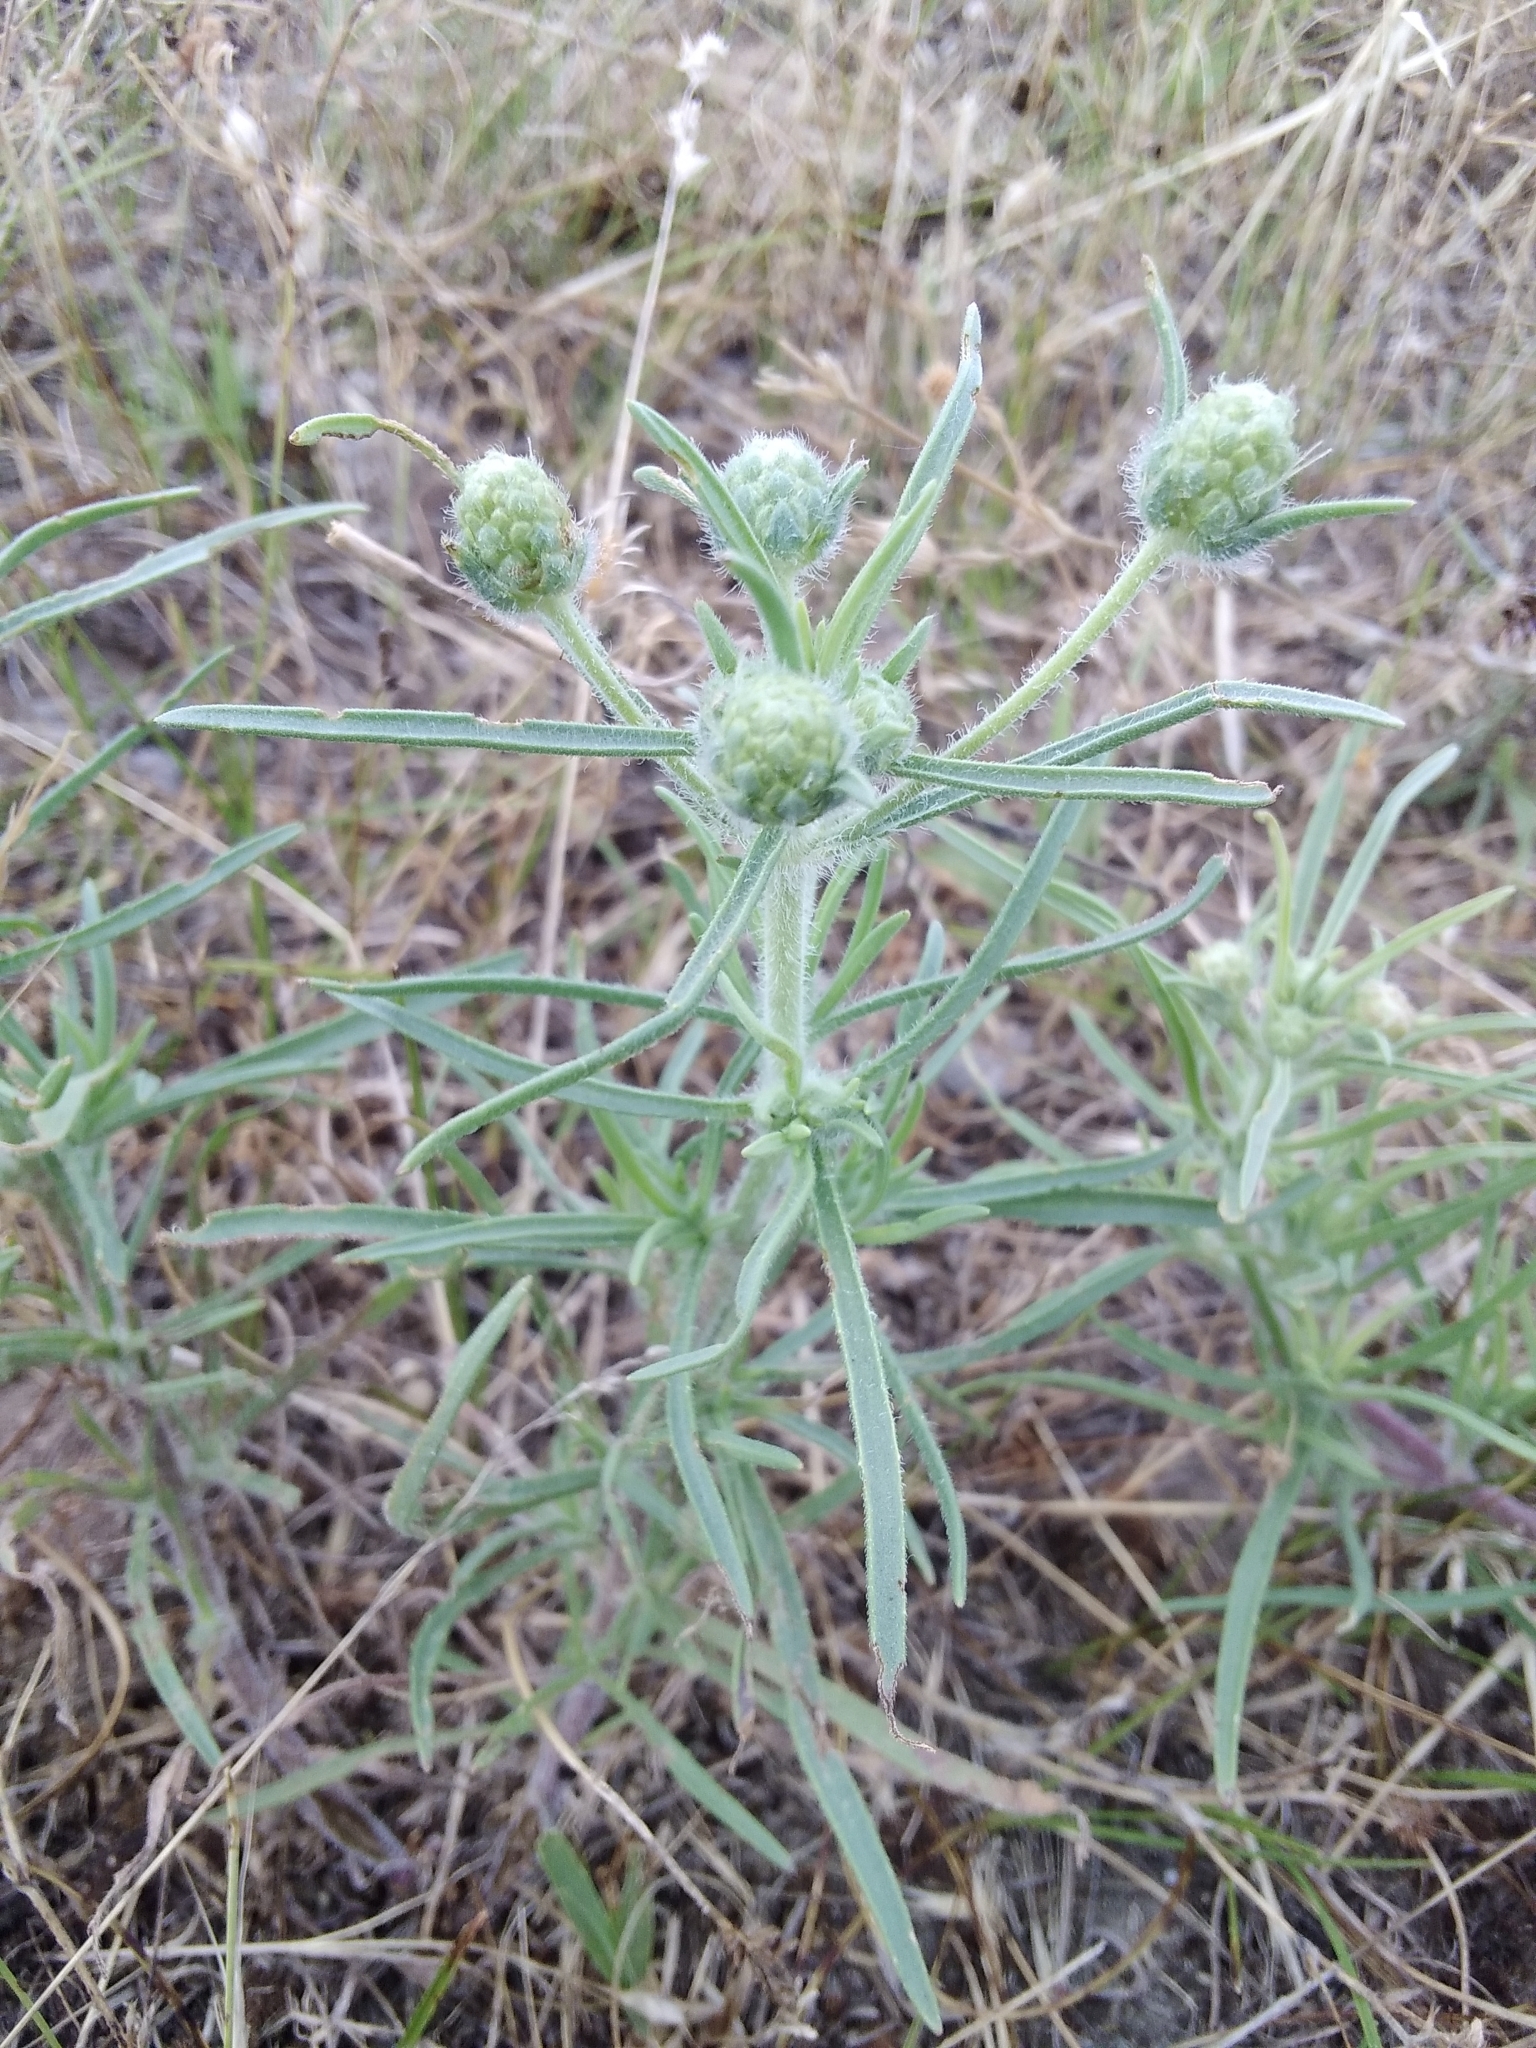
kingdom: Plantae
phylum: Tracheophyta
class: Magnoliopsida
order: Lamiales
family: Plantaginaceae
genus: Plantago
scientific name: Plantago arenaria
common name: Branched plantain
